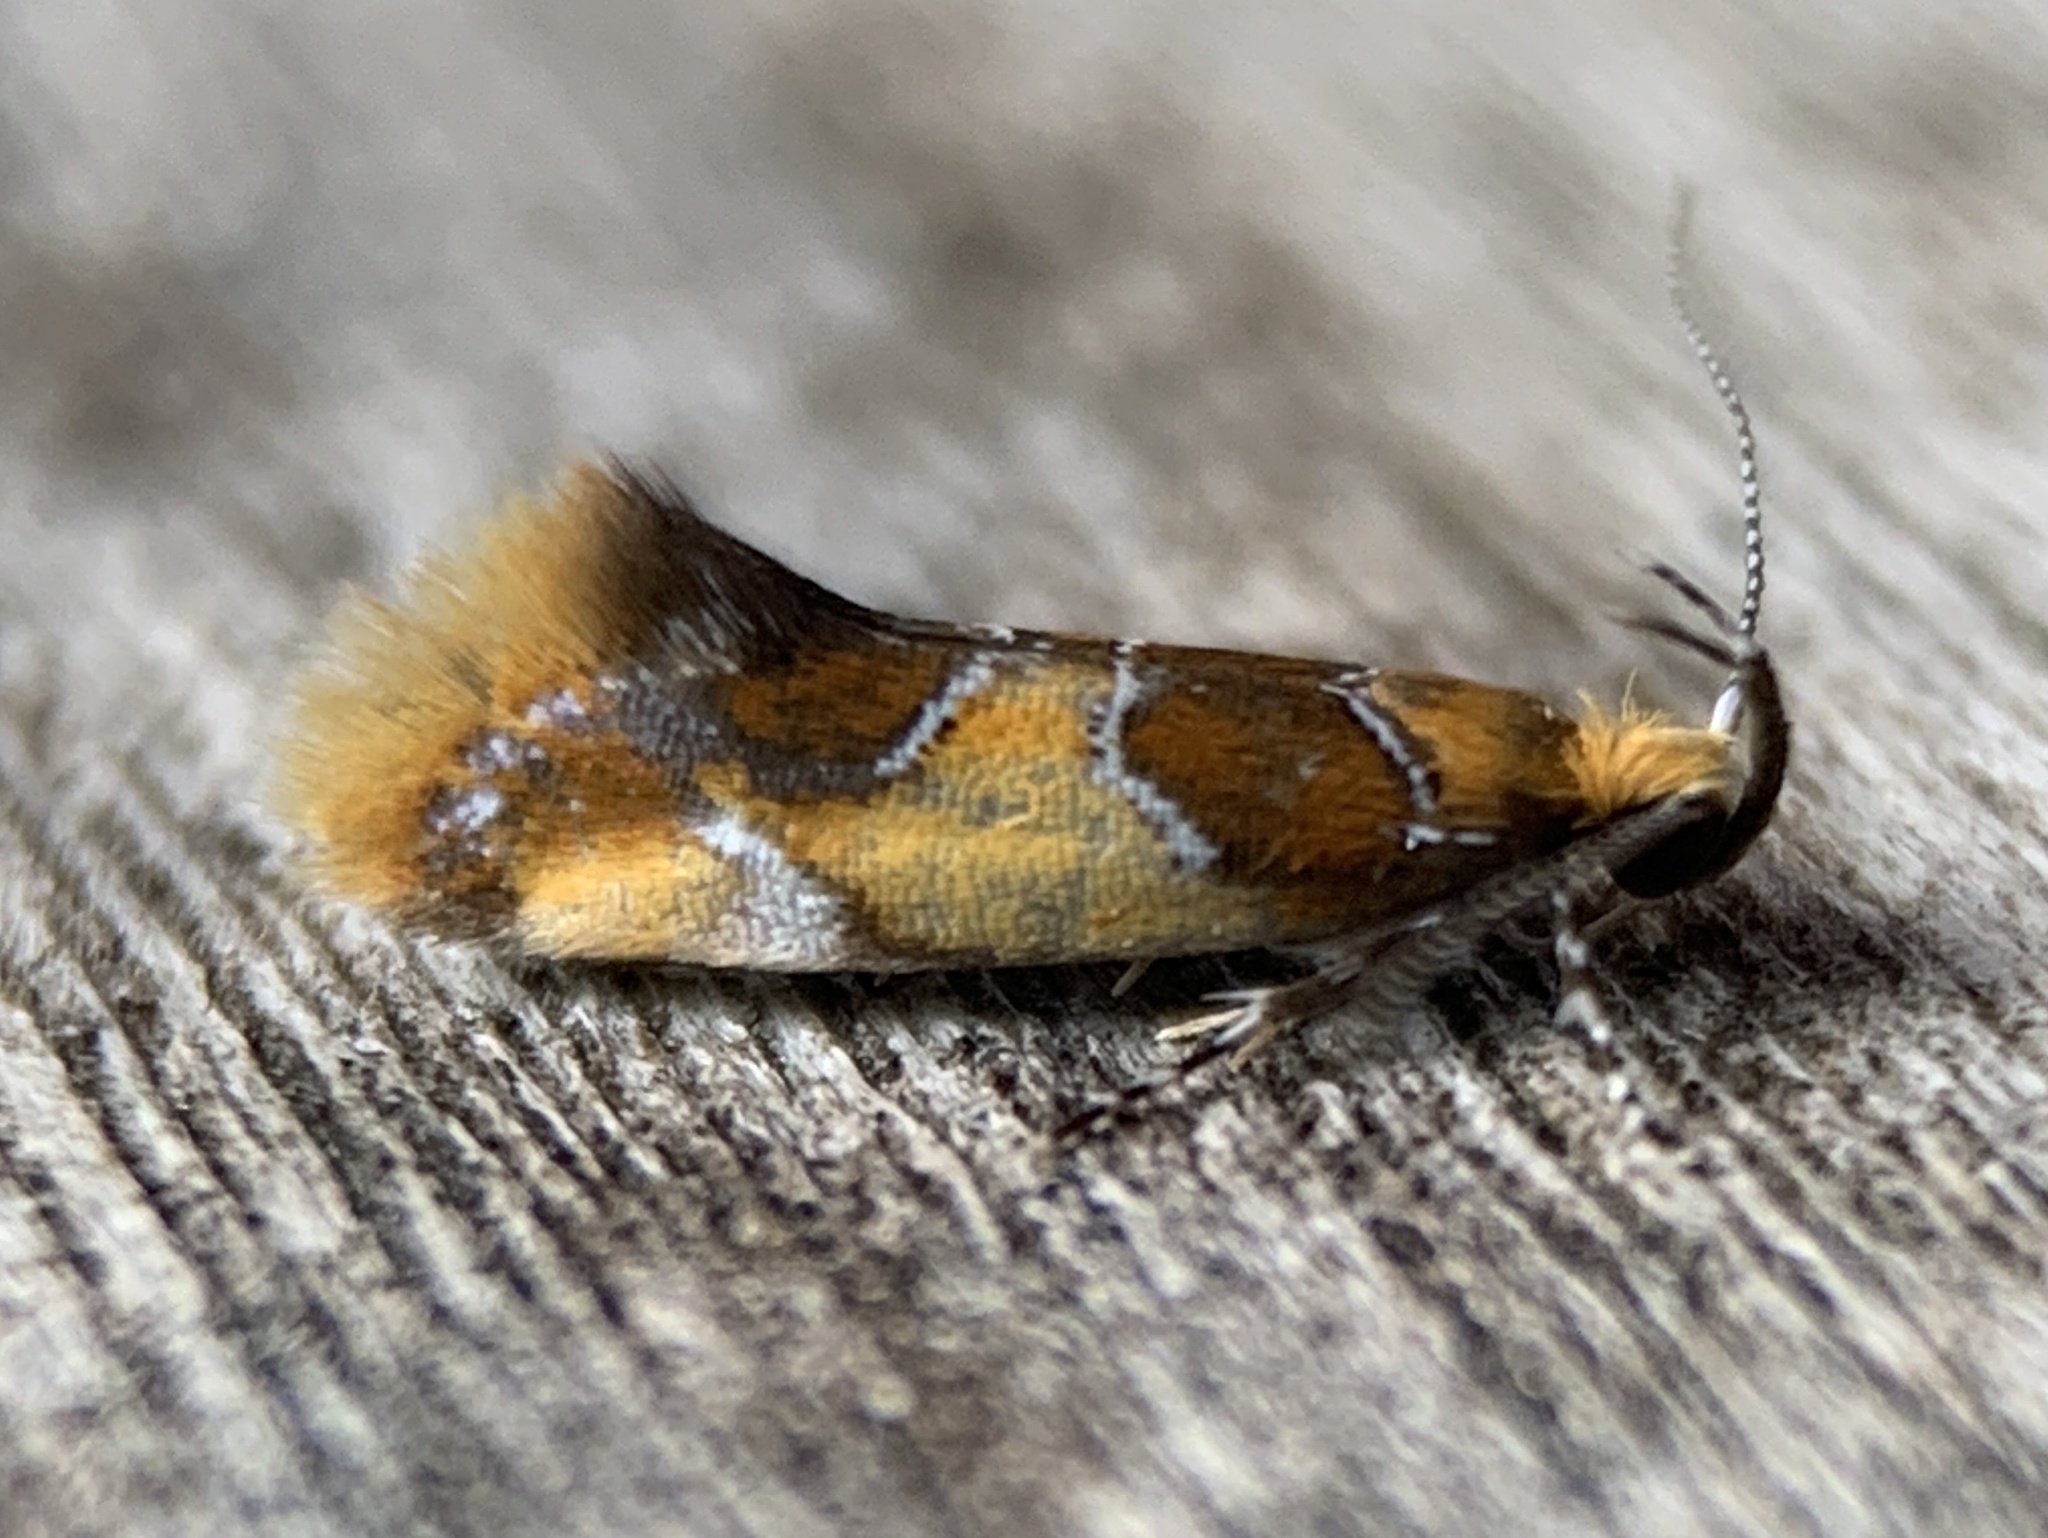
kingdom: Animalia
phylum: Arthropoda
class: Insecta
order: Lepidoptera
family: Oecophoridae
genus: Callima
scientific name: Callima argenticinctella
